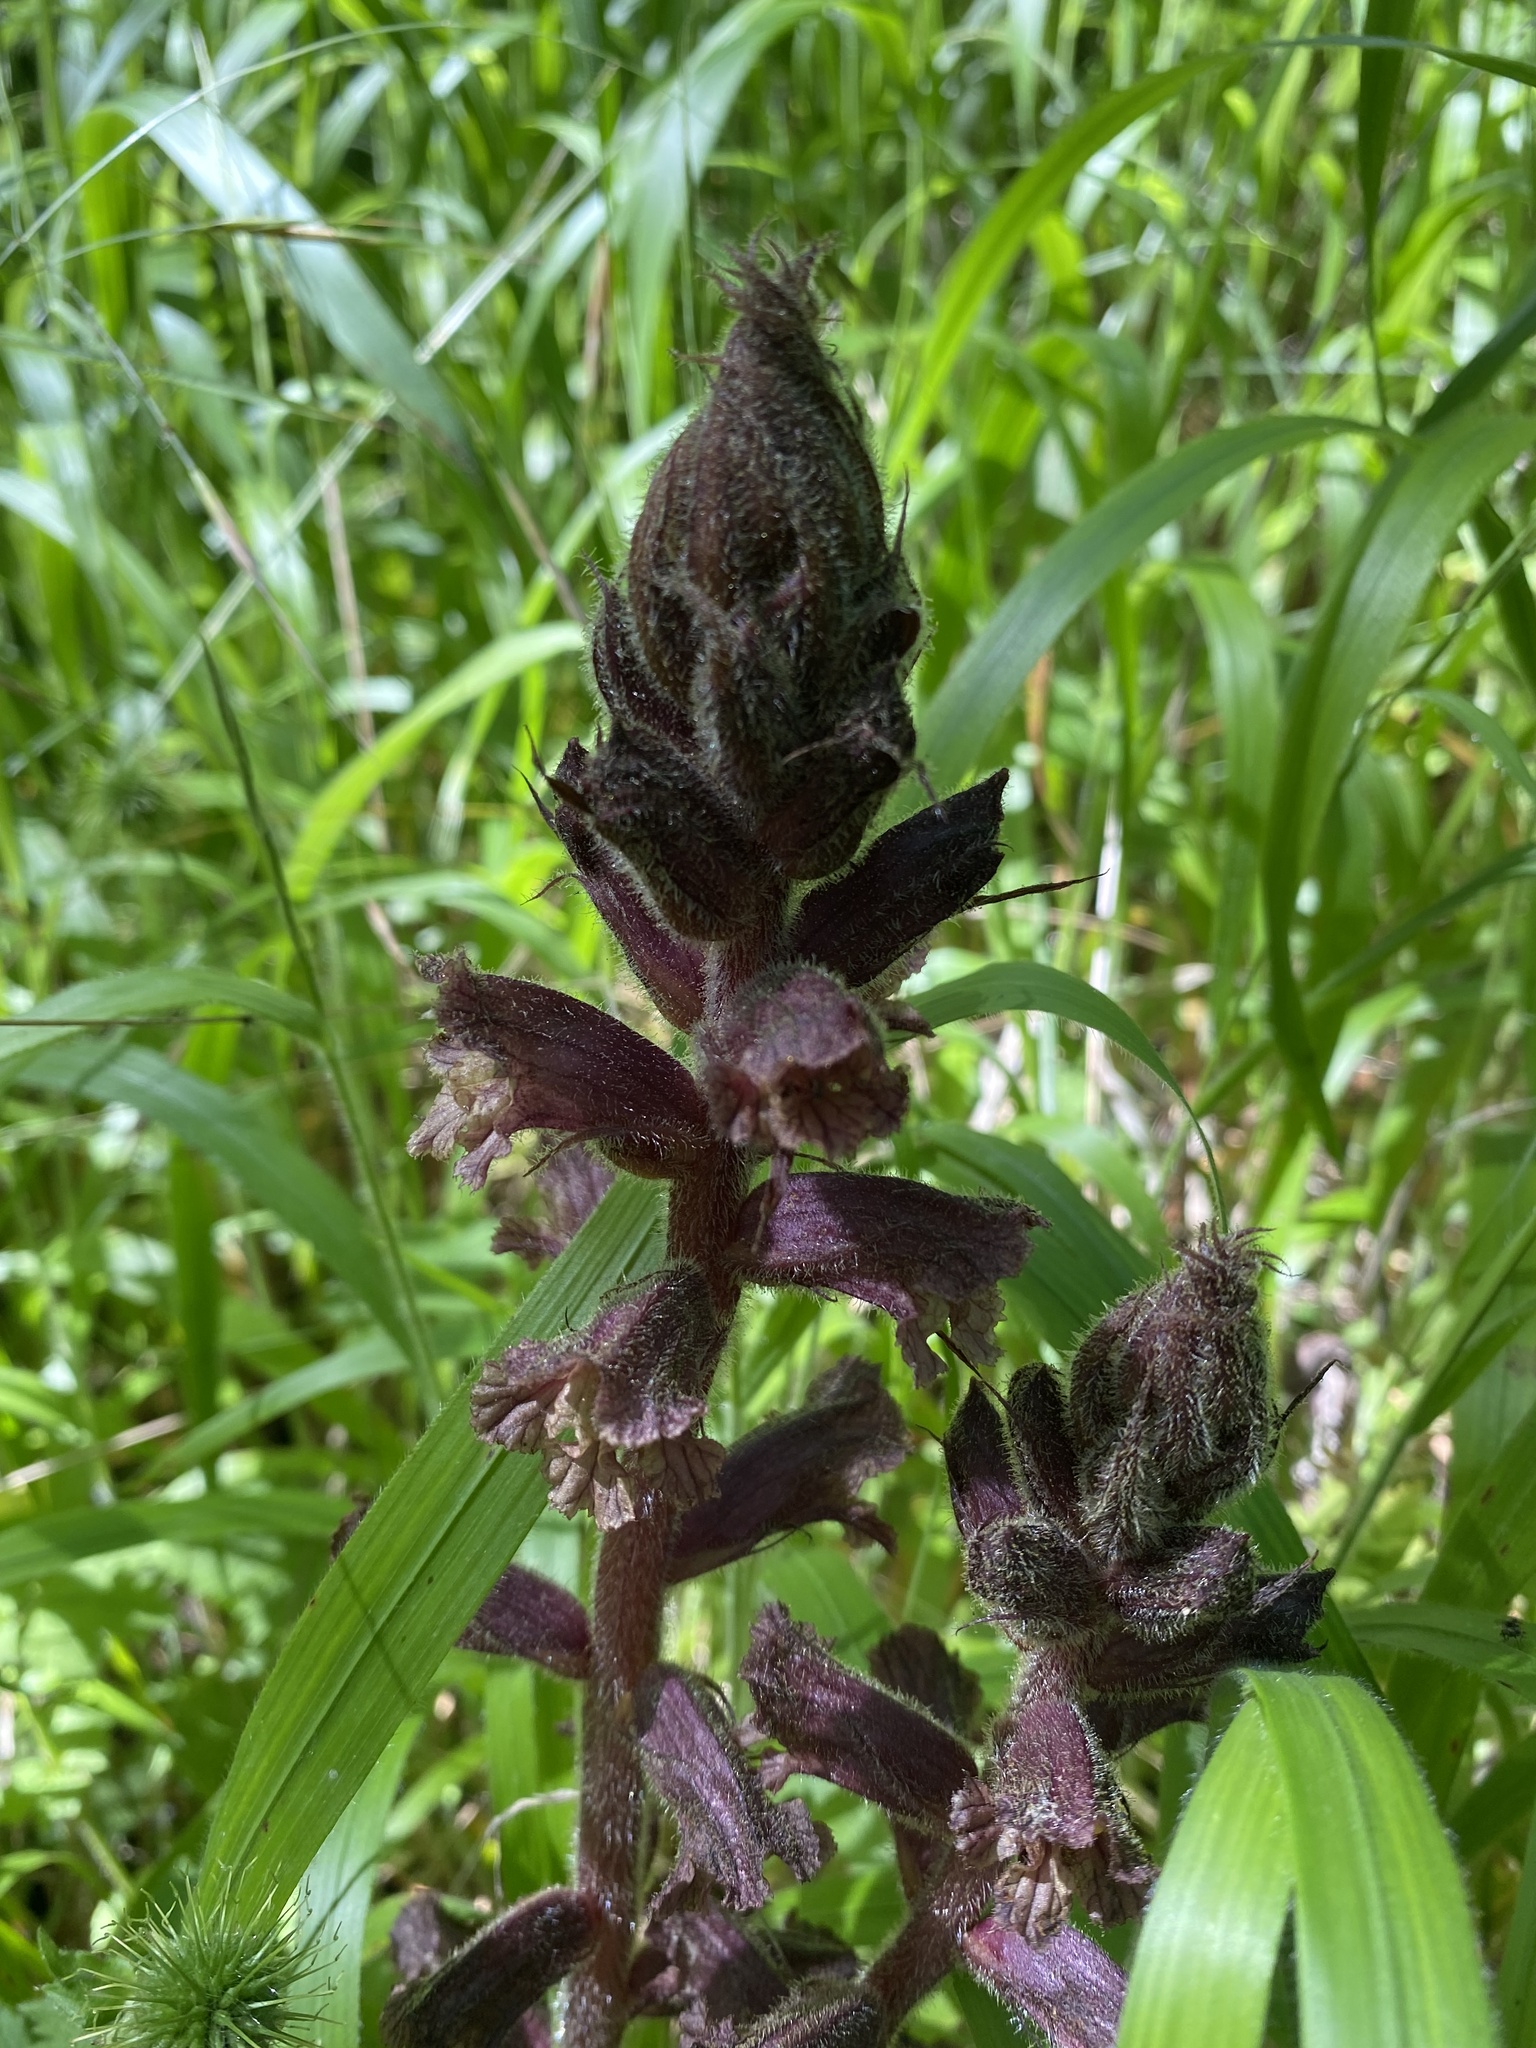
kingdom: Plantae
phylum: Tracheophyta
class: Magnoliopsida
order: Lamiales
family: Orobanchaceae
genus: Orobanche
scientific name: Orobanche laxissima
